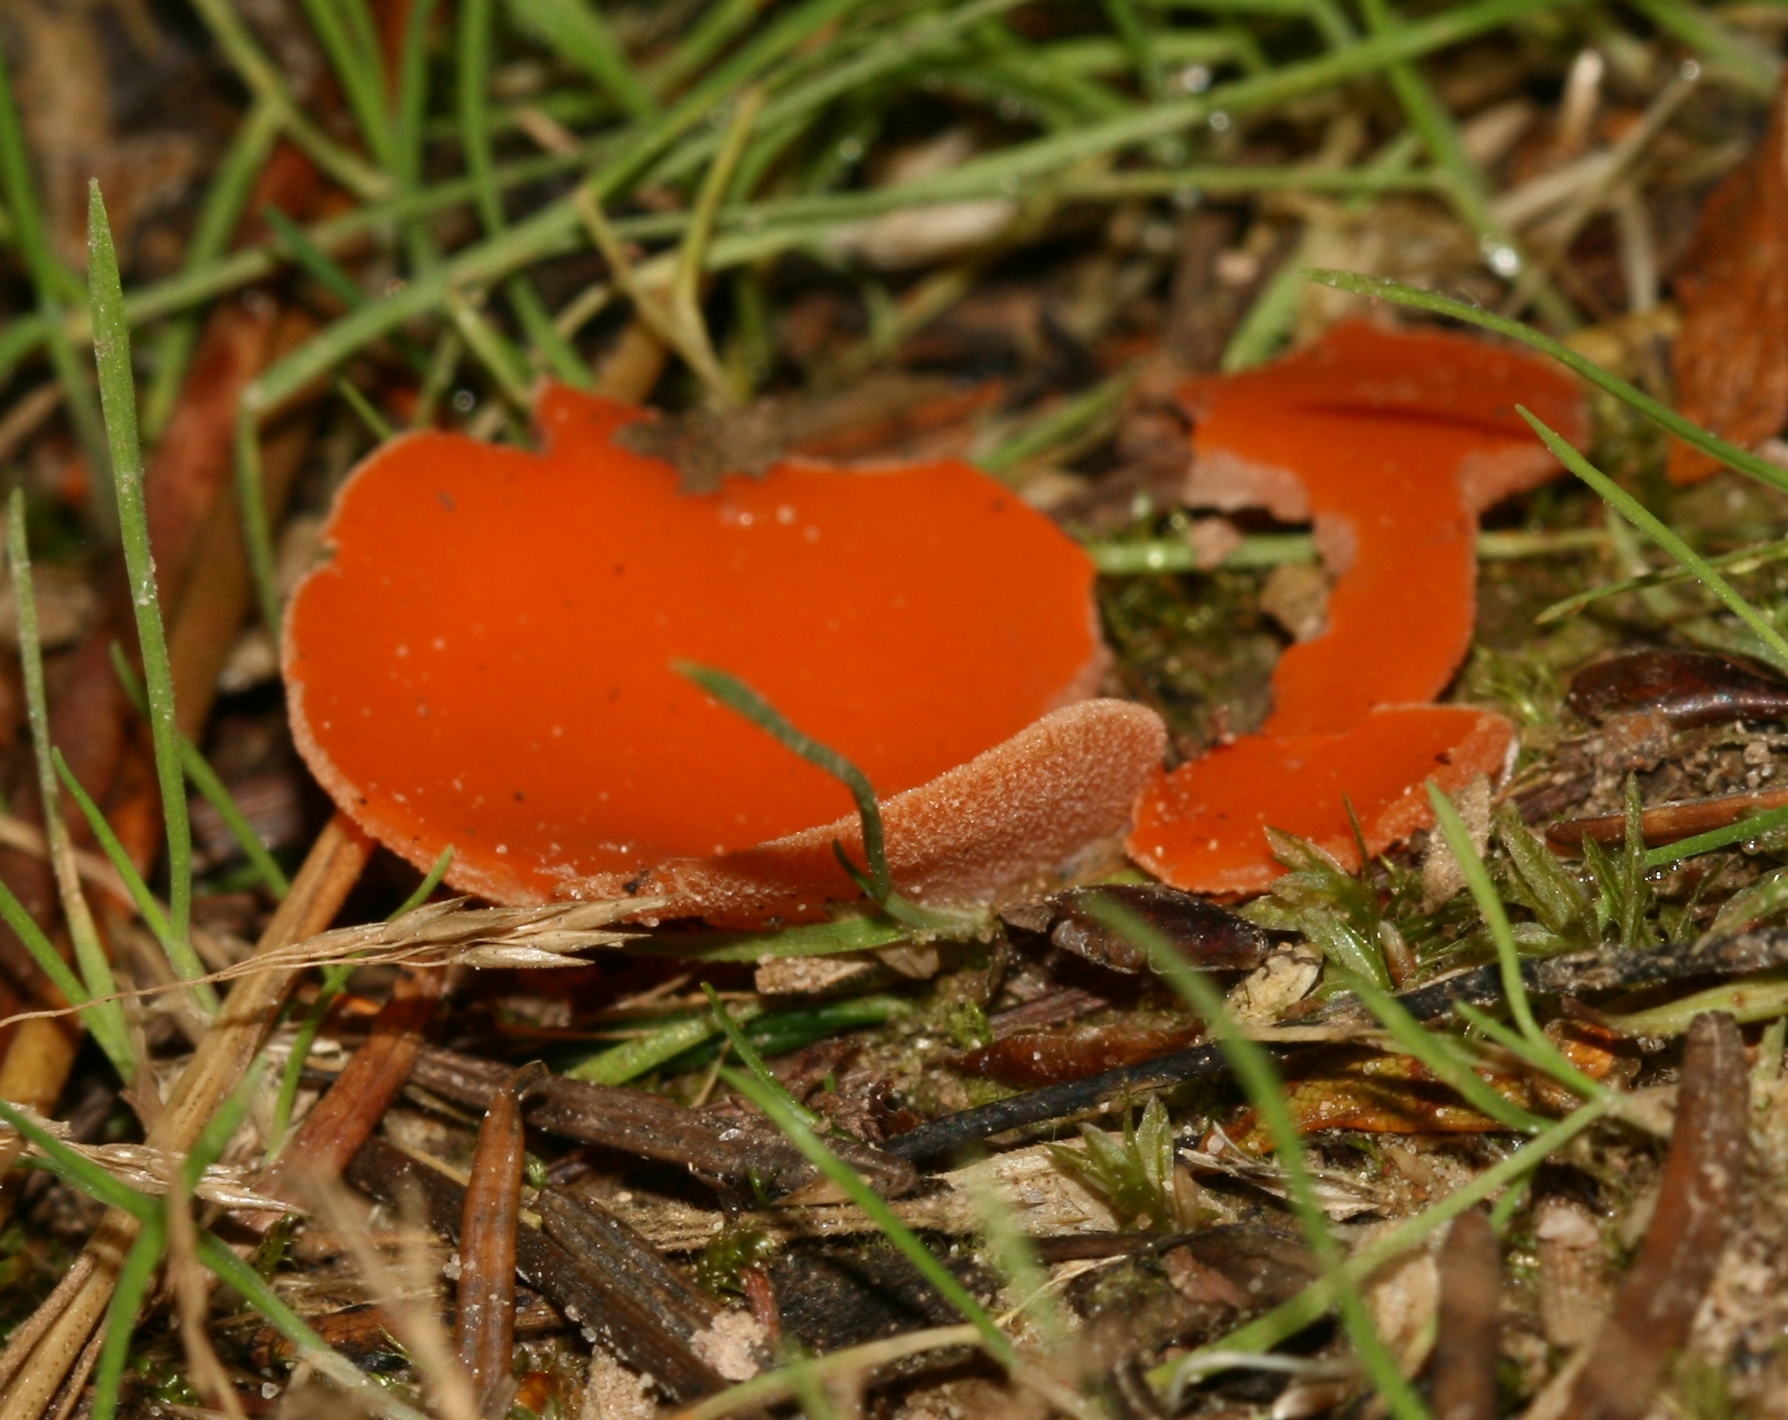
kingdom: Fungi
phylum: Ascomycota
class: Pezizomycetes
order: Pezizales
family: Pyronemataceae
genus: Aleuria
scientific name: Aleuria aurantia
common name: Orange peel fungus
